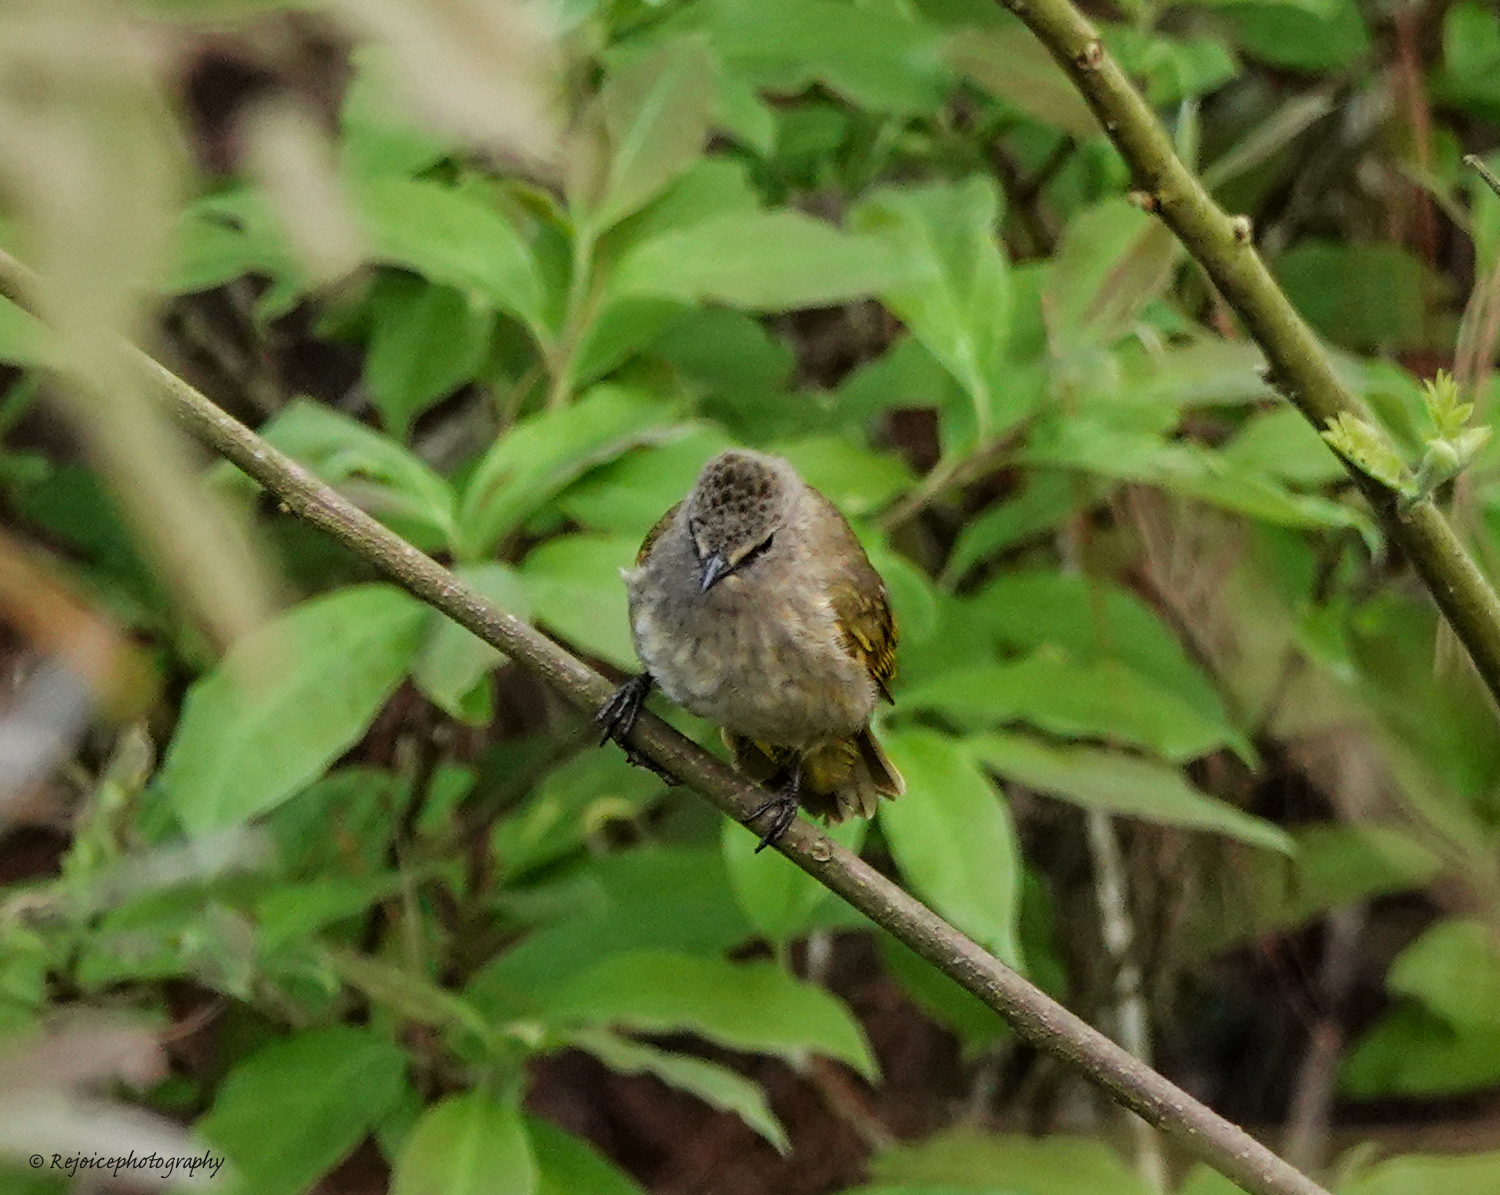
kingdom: Animalia
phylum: Chordata
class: Aves
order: Passeriformes
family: Pycnonotidae
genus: Pycnonotus
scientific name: Pycnonotus flavescens
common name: Flavescent bulbul
